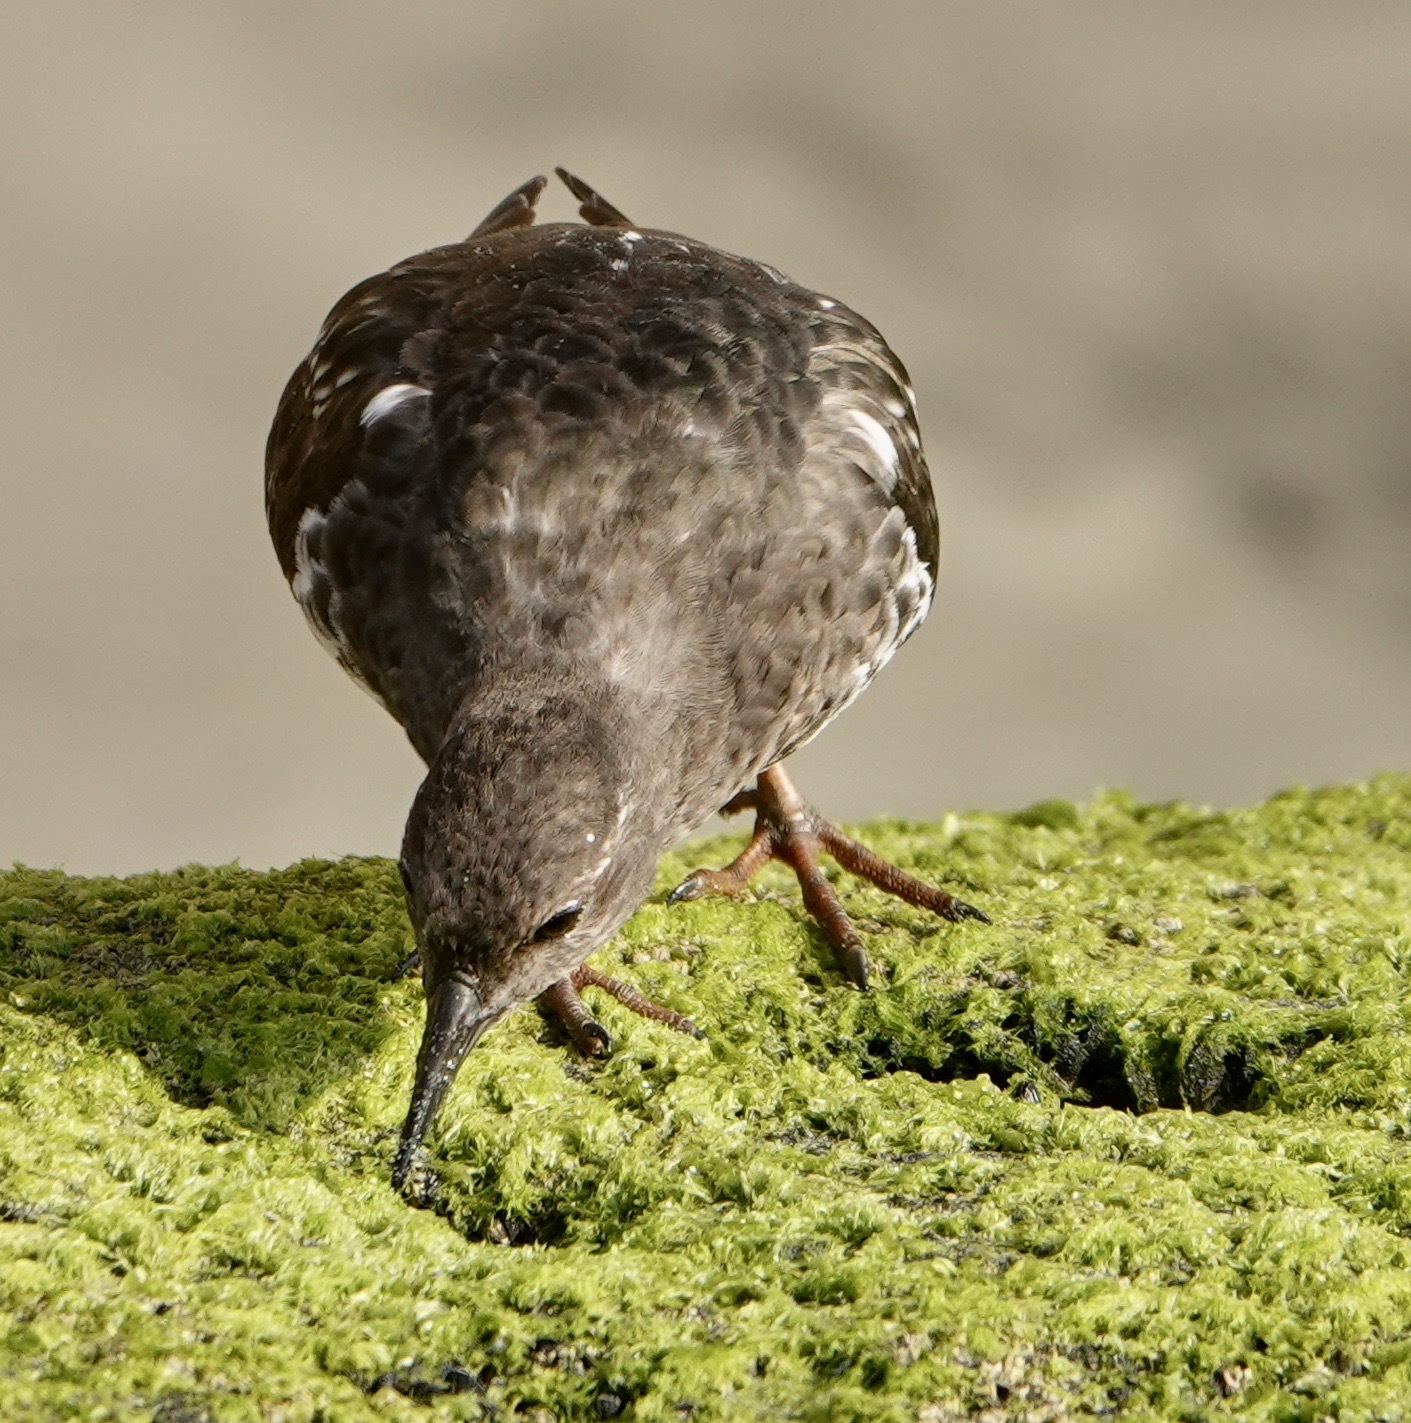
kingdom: Animalia
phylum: Chordata
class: Aves
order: Charadriiformes
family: Scolopacidae
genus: Arenaria
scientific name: Arenaria melanocephala
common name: Black turnstone
